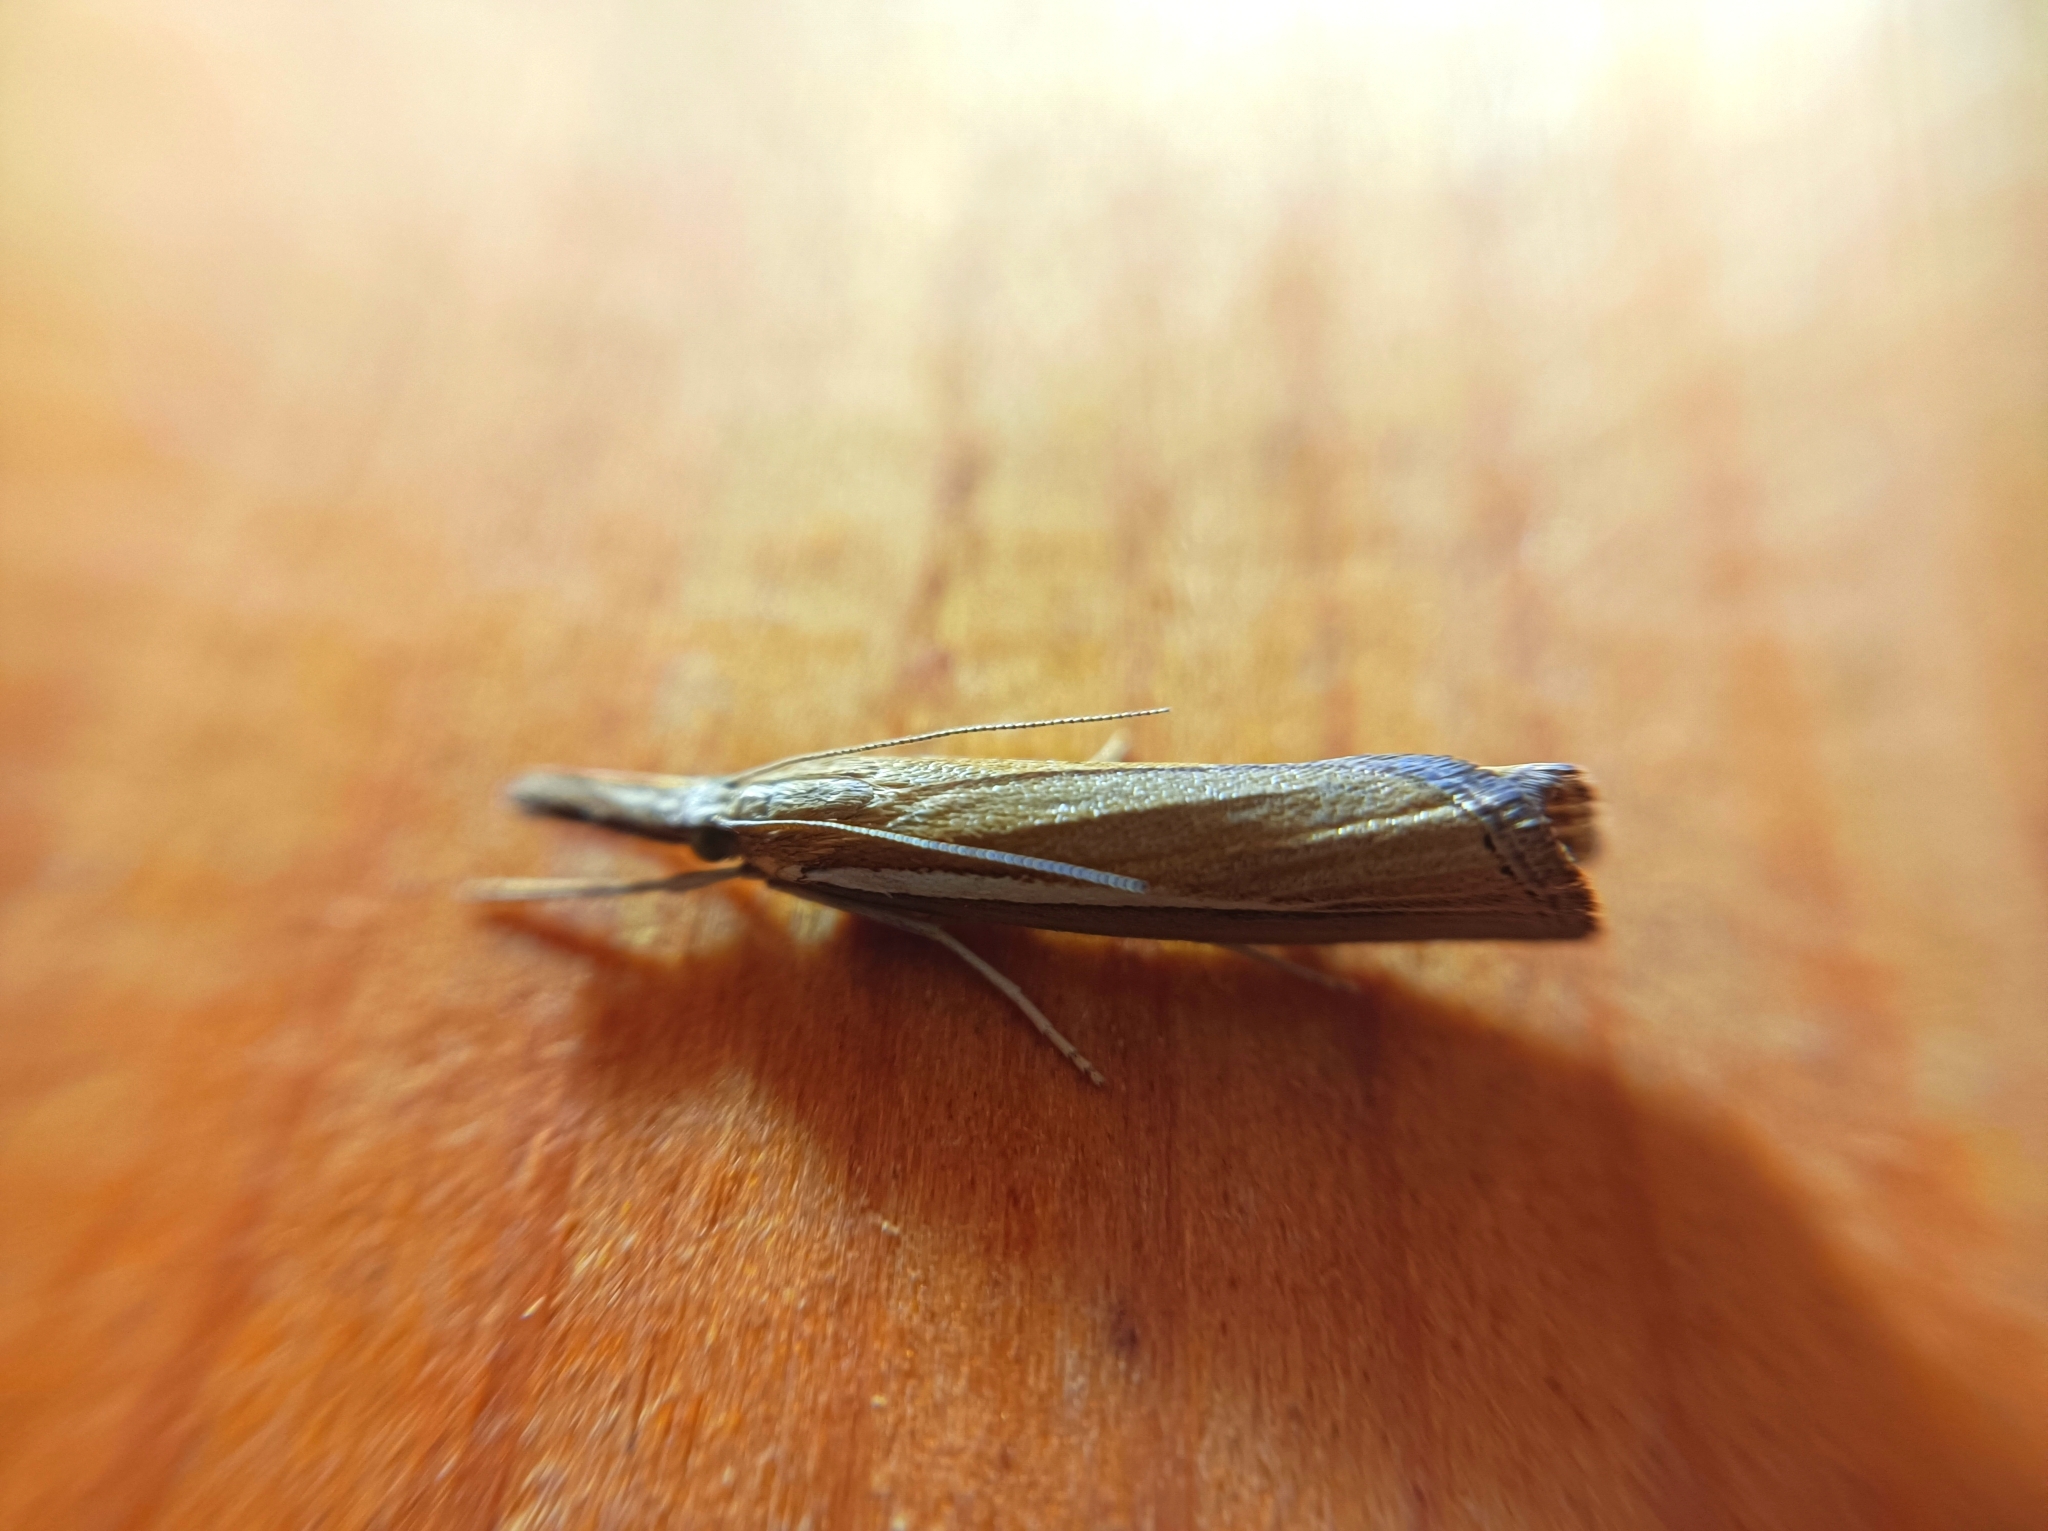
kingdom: Animalia
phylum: Arthropoda
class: Insecta
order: Lepidoptera
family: Crambidae
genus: Agriphila
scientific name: Agriphila selasella
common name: Pale-streak grass-veneer
